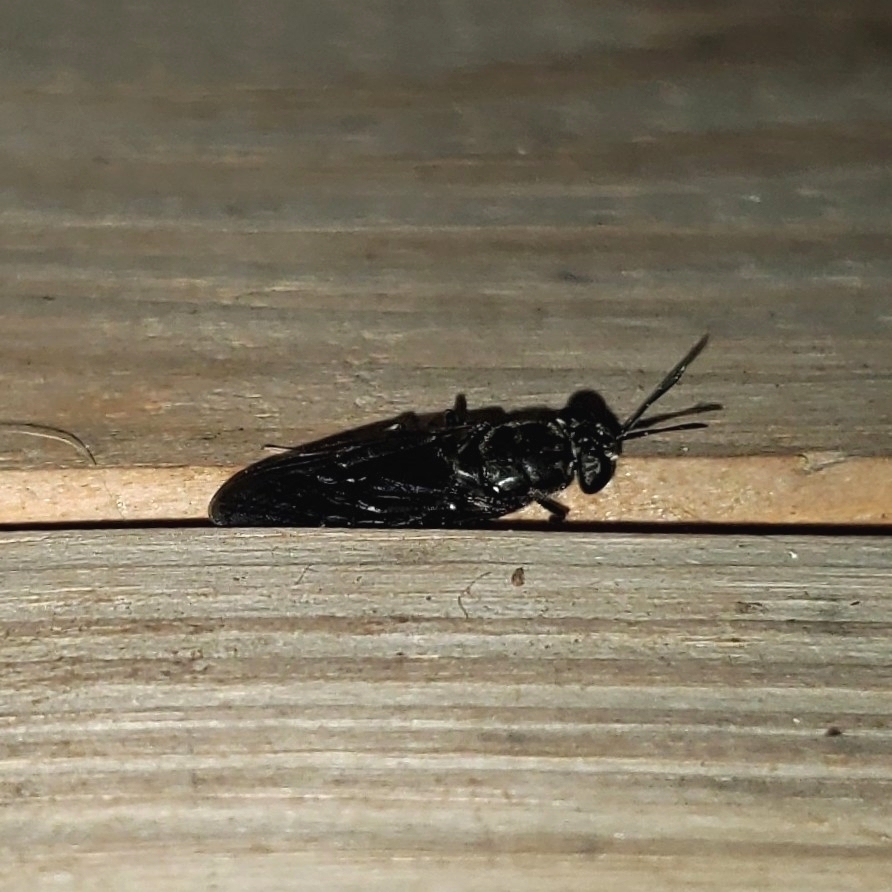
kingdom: Animalia
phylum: Arthropoda
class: Insecta
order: Diptera
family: Stratiomyidae
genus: Hermetia
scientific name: Hermetia illucens
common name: Black soldier fly
